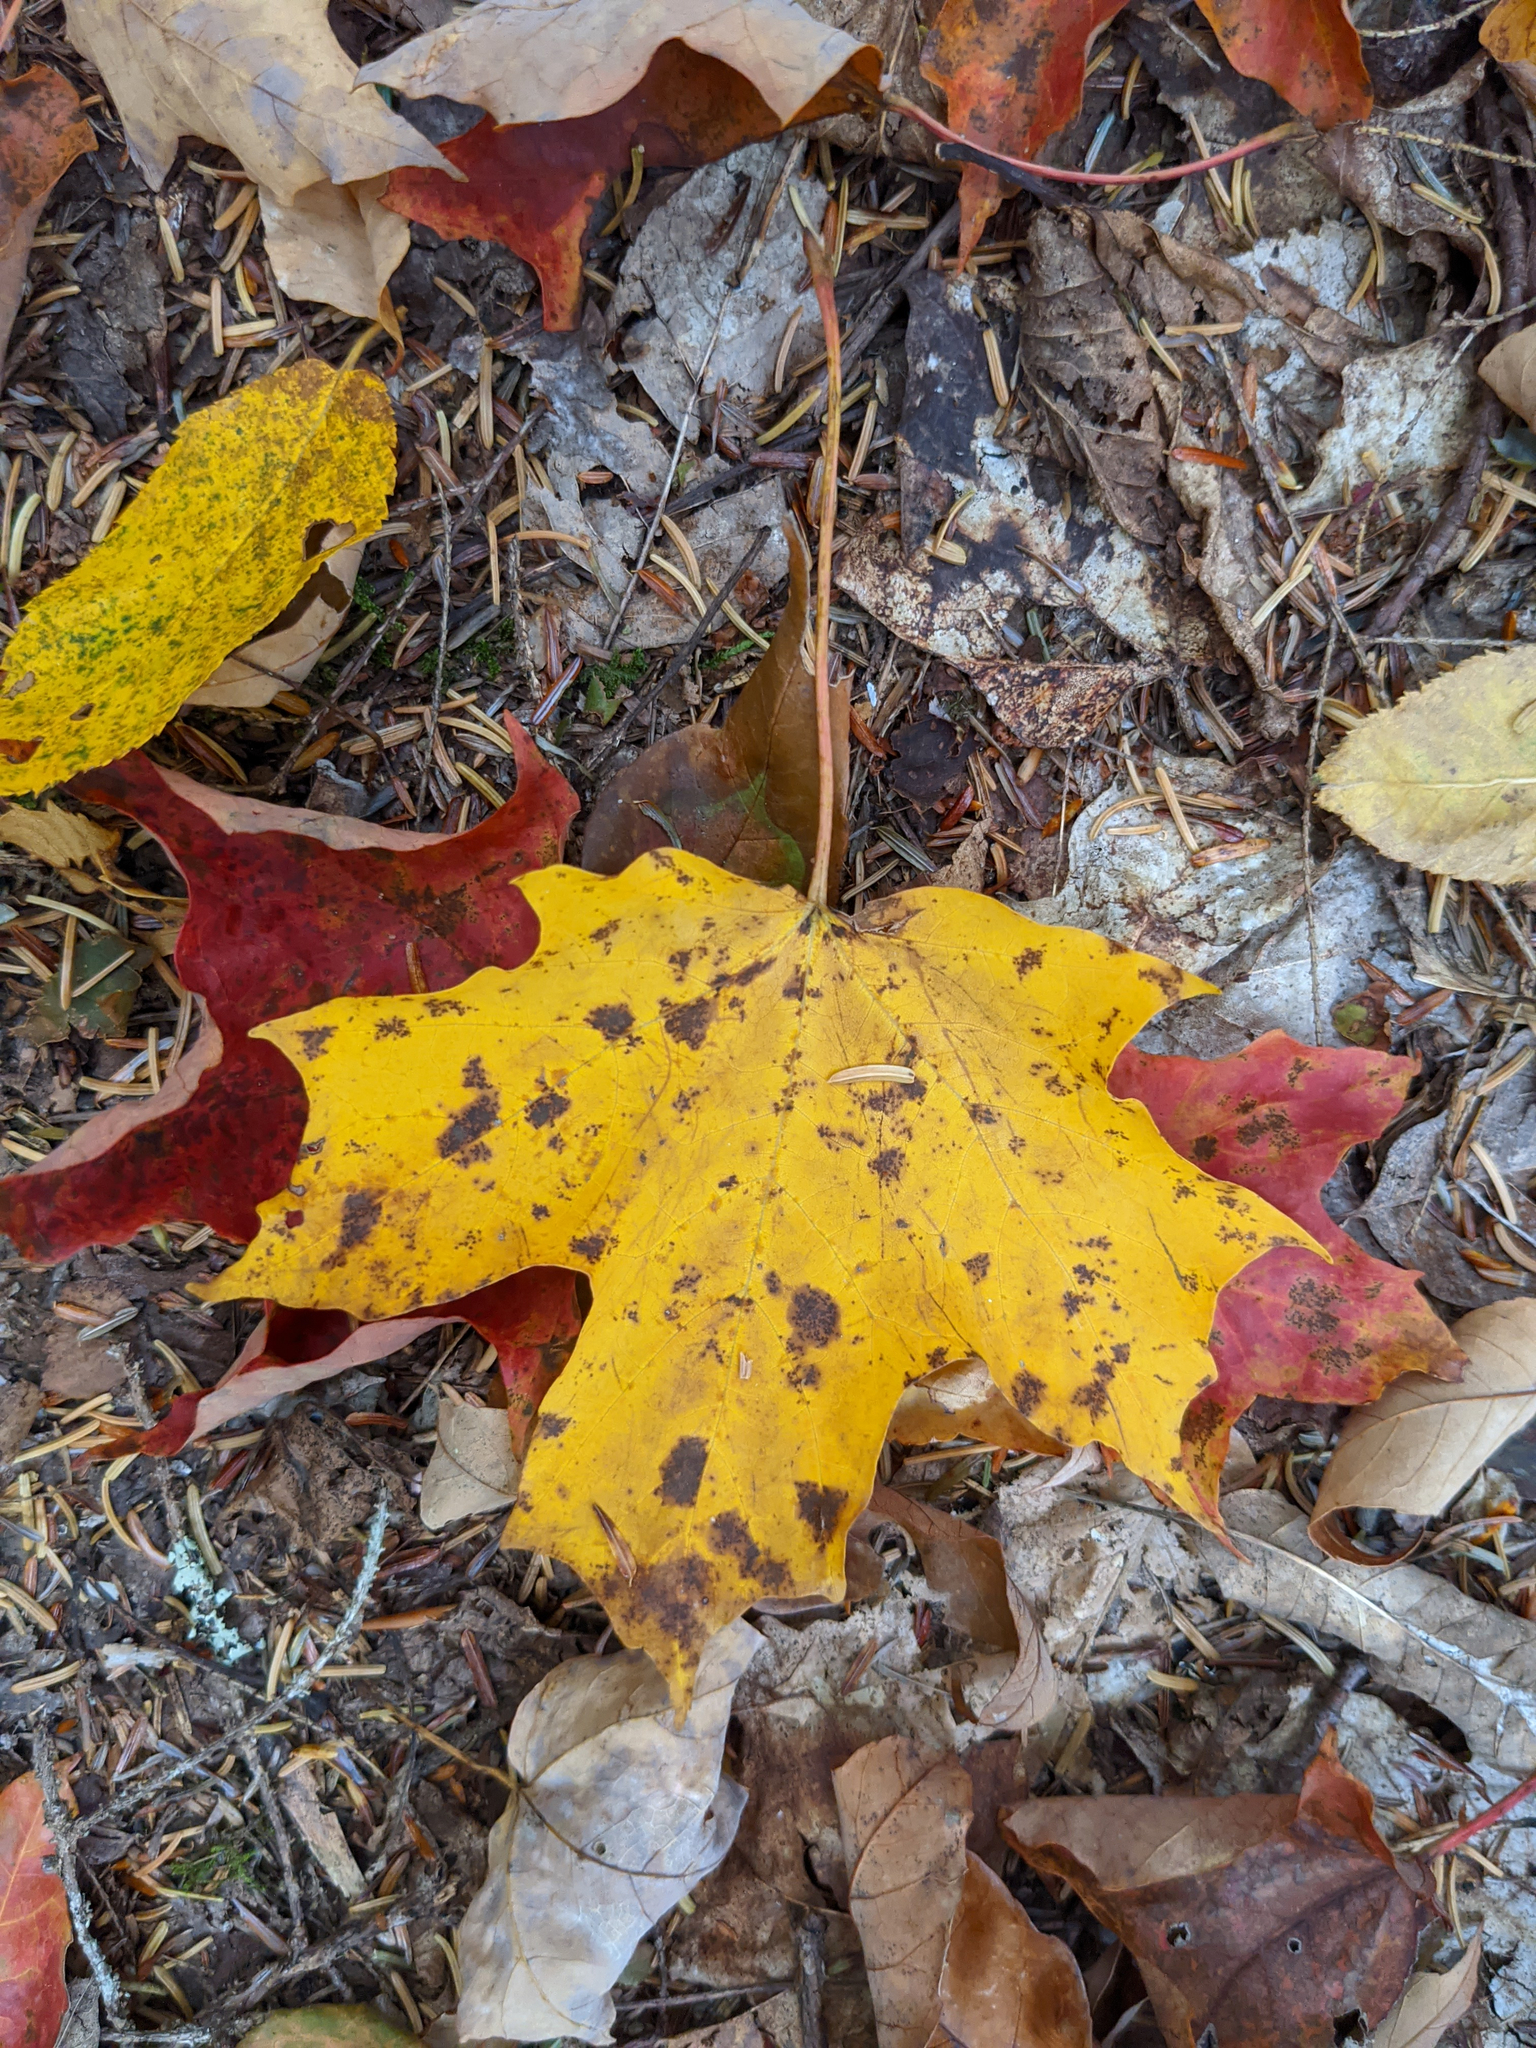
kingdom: Plantae
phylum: Tracheophyta
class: Magnoliopsida
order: Sapindales
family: Sapindaceae
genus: Acer
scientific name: Acer saccharum
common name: Sugar maple
